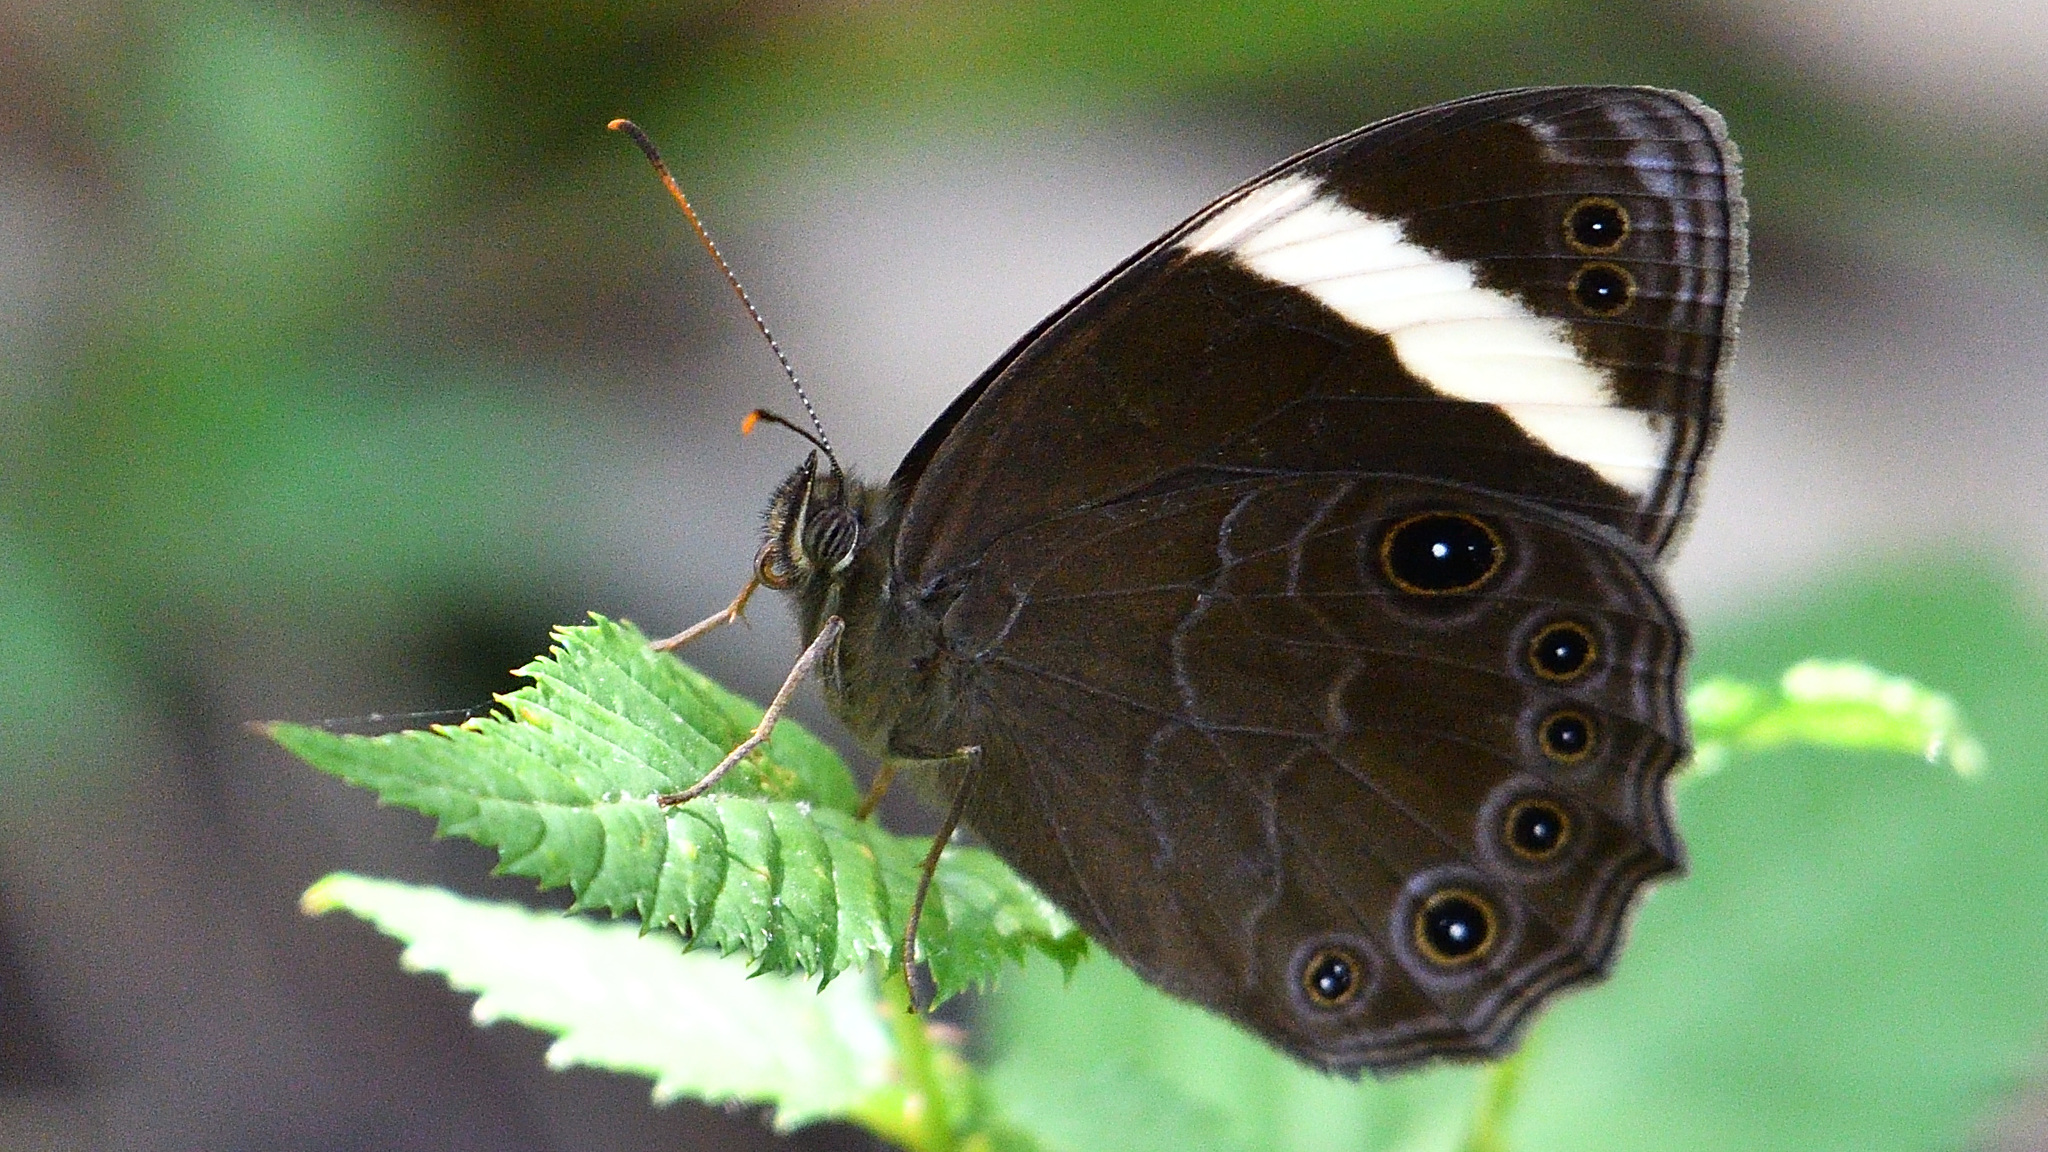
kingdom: Animalia
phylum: Arthropoda
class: Insecta
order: Lepidoptera
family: Nymphalidae
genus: Lethe
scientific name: Lethe verma
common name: Straight-banded treebrown
